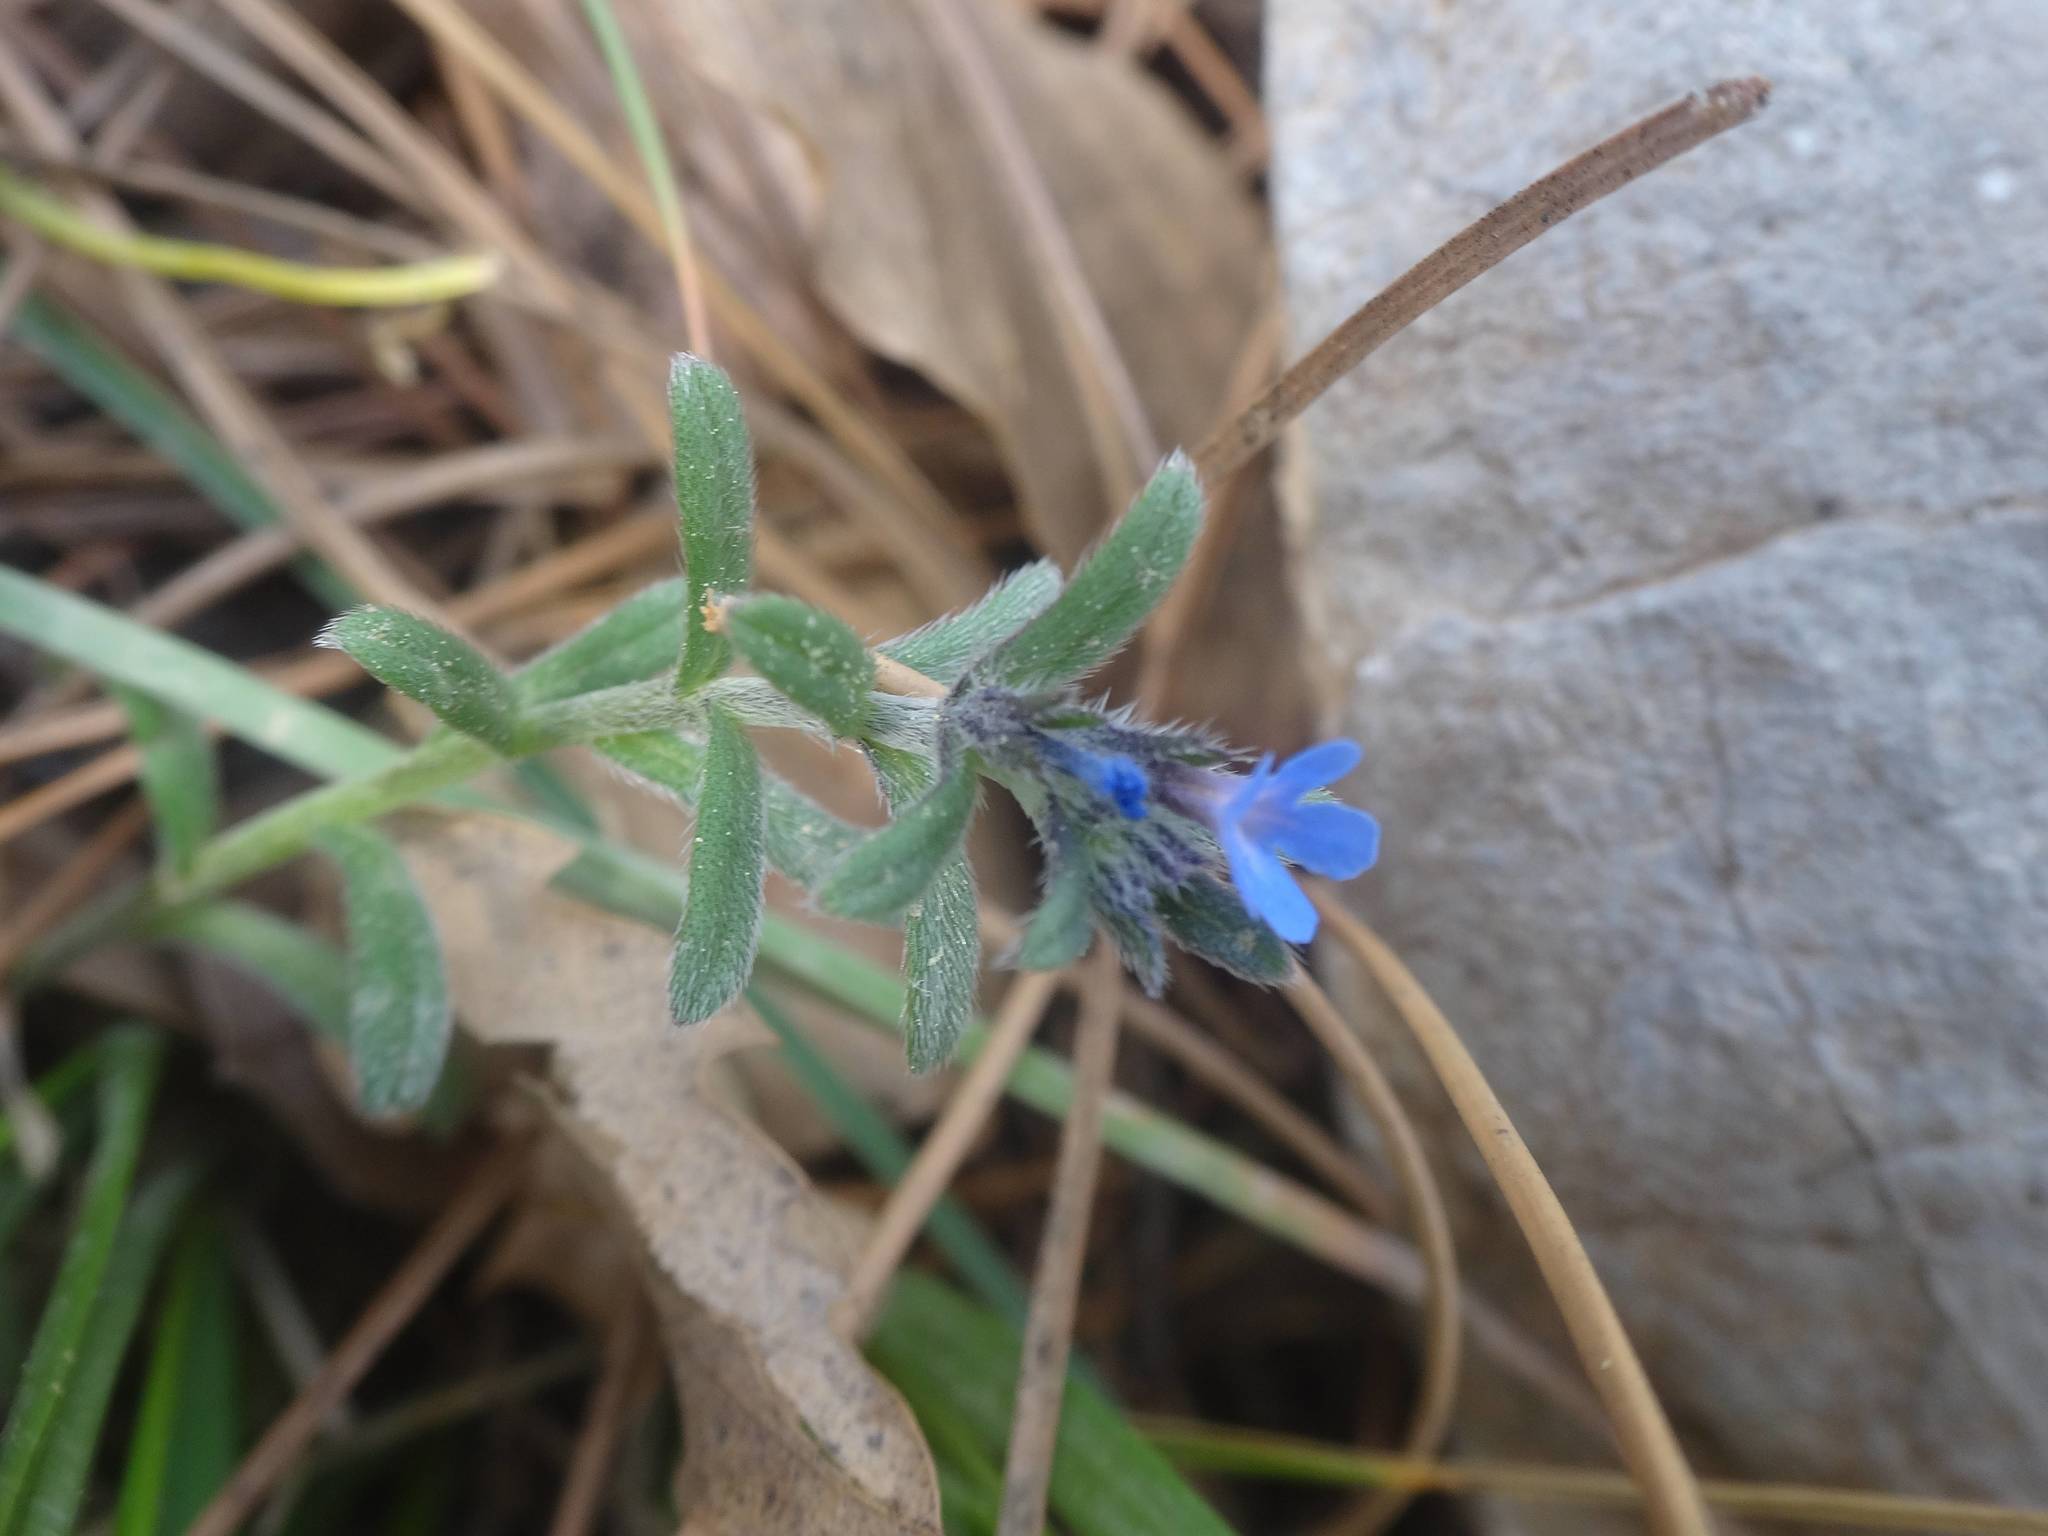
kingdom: Plantae
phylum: Tracheophyta
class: Magnoliopsida
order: Boraginales
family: Boraginaceae
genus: Alkanna
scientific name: Alkanna tinctoria
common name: Dyer's-alkanet
